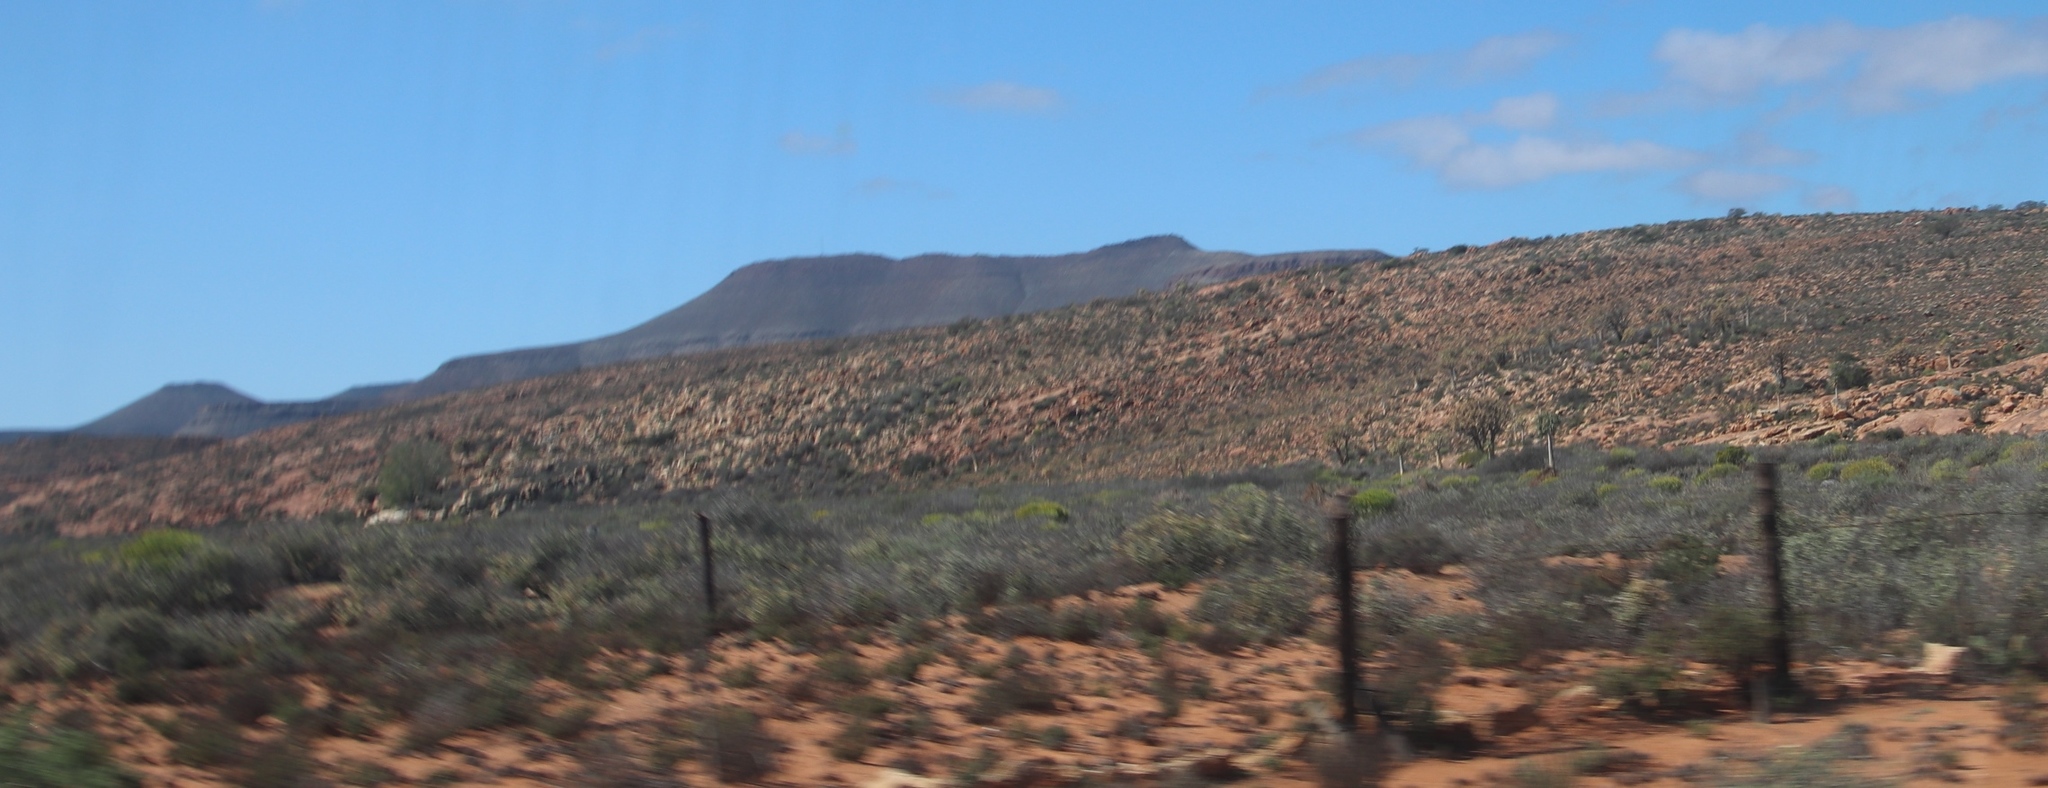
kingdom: Plantae
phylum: Tracheophyta
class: Liliopsida
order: Asparagales
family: Asphodelaceae
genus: Aloidendron
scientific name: Aloidendron dichotomum
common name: Quiver tree
